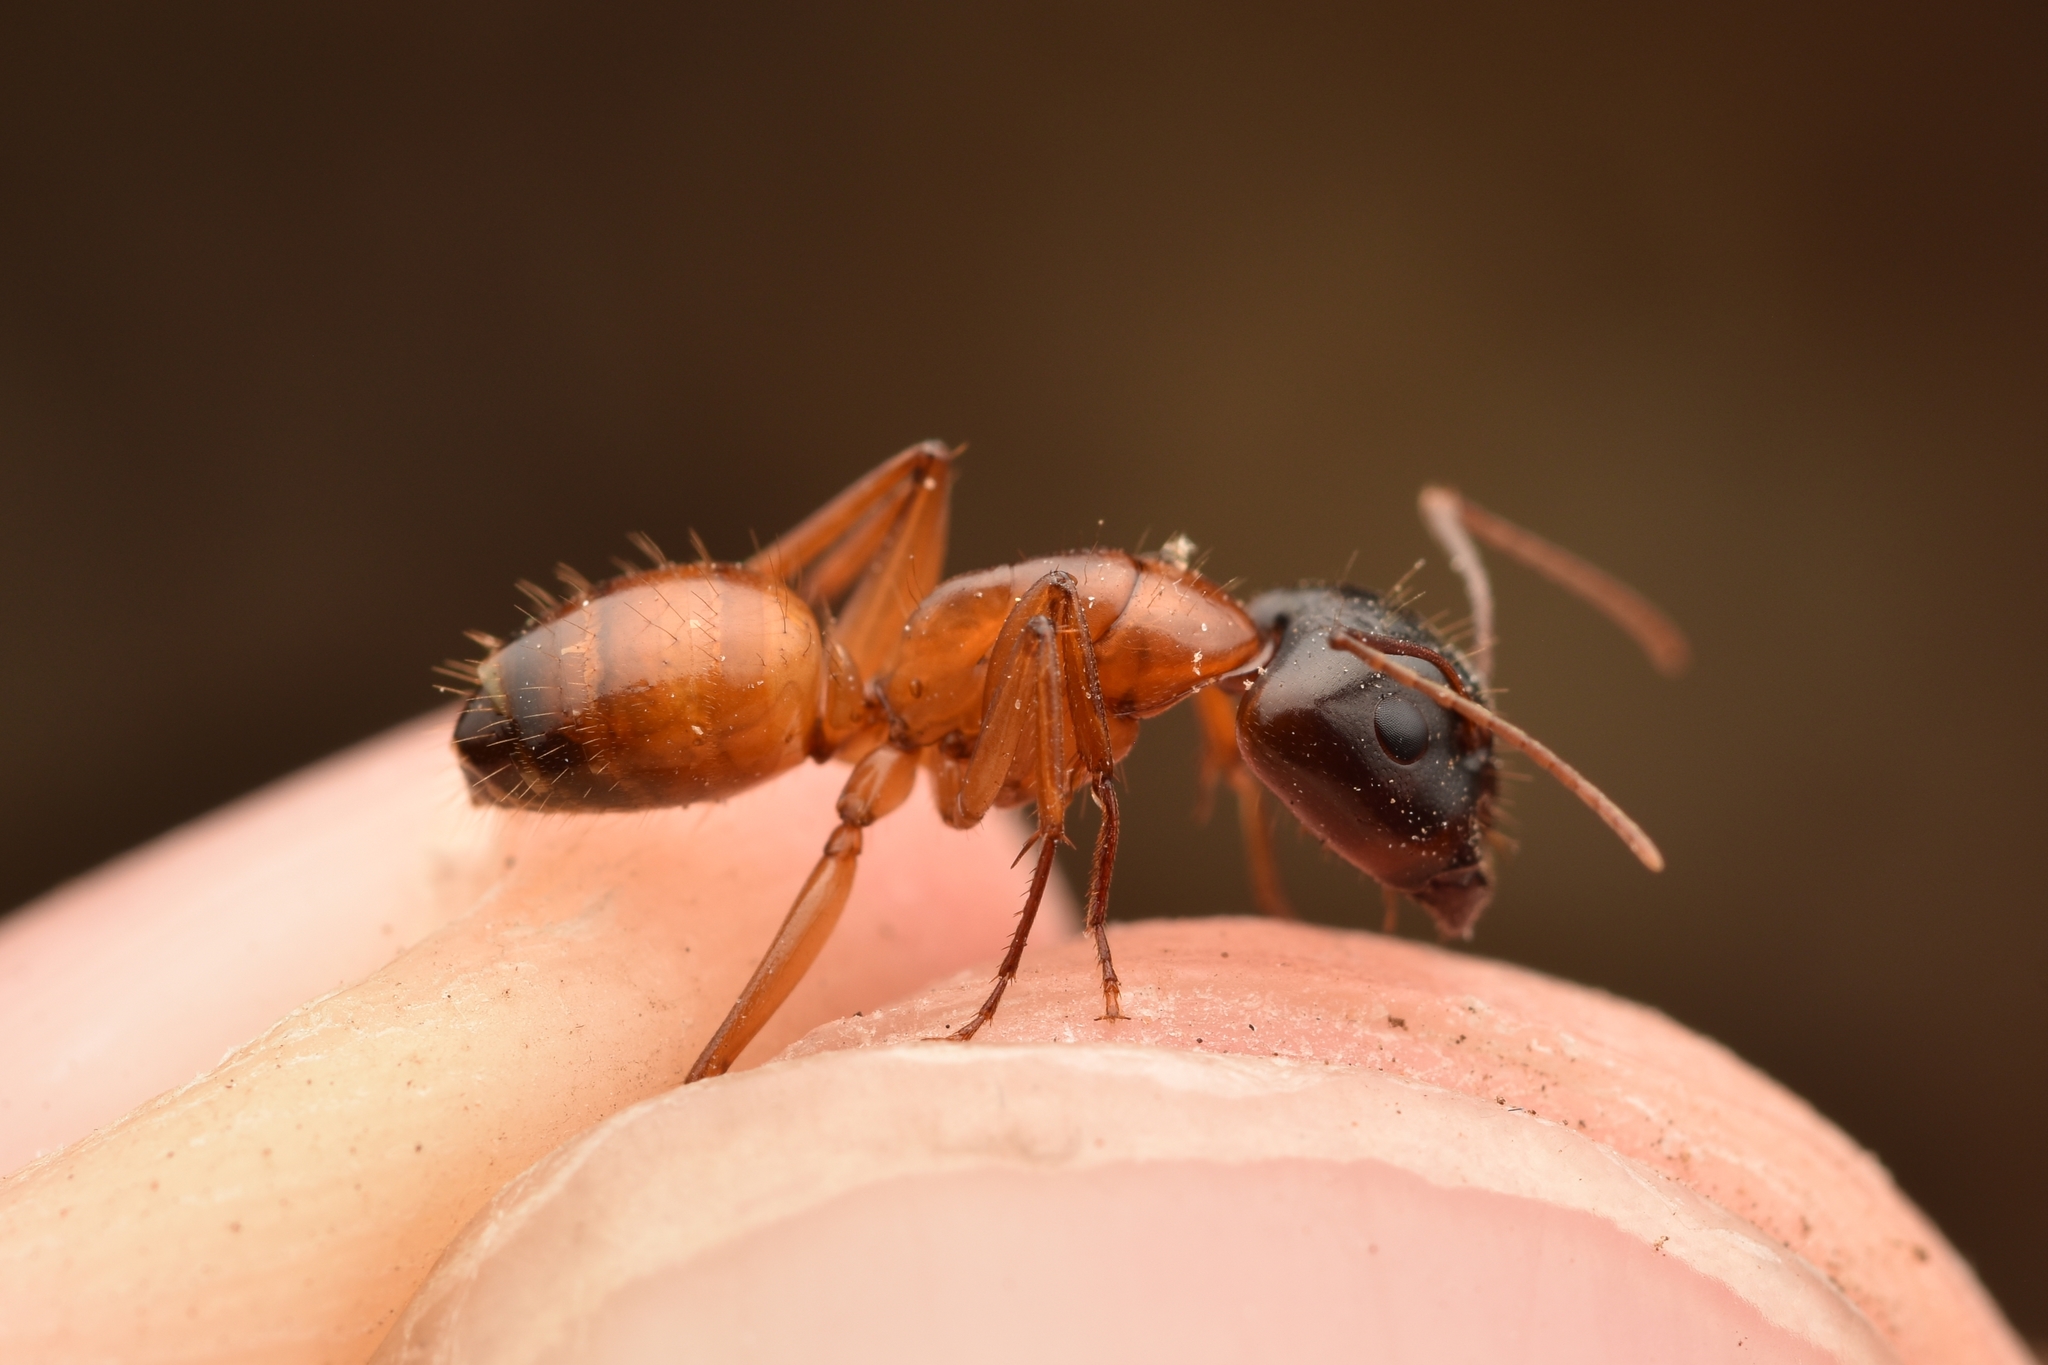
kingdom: Animalia
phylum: Arthropoda
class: Insecta
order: Hymenoptera
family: Formicidae
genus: Camponotus
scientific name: Camponotus sansabeanus
